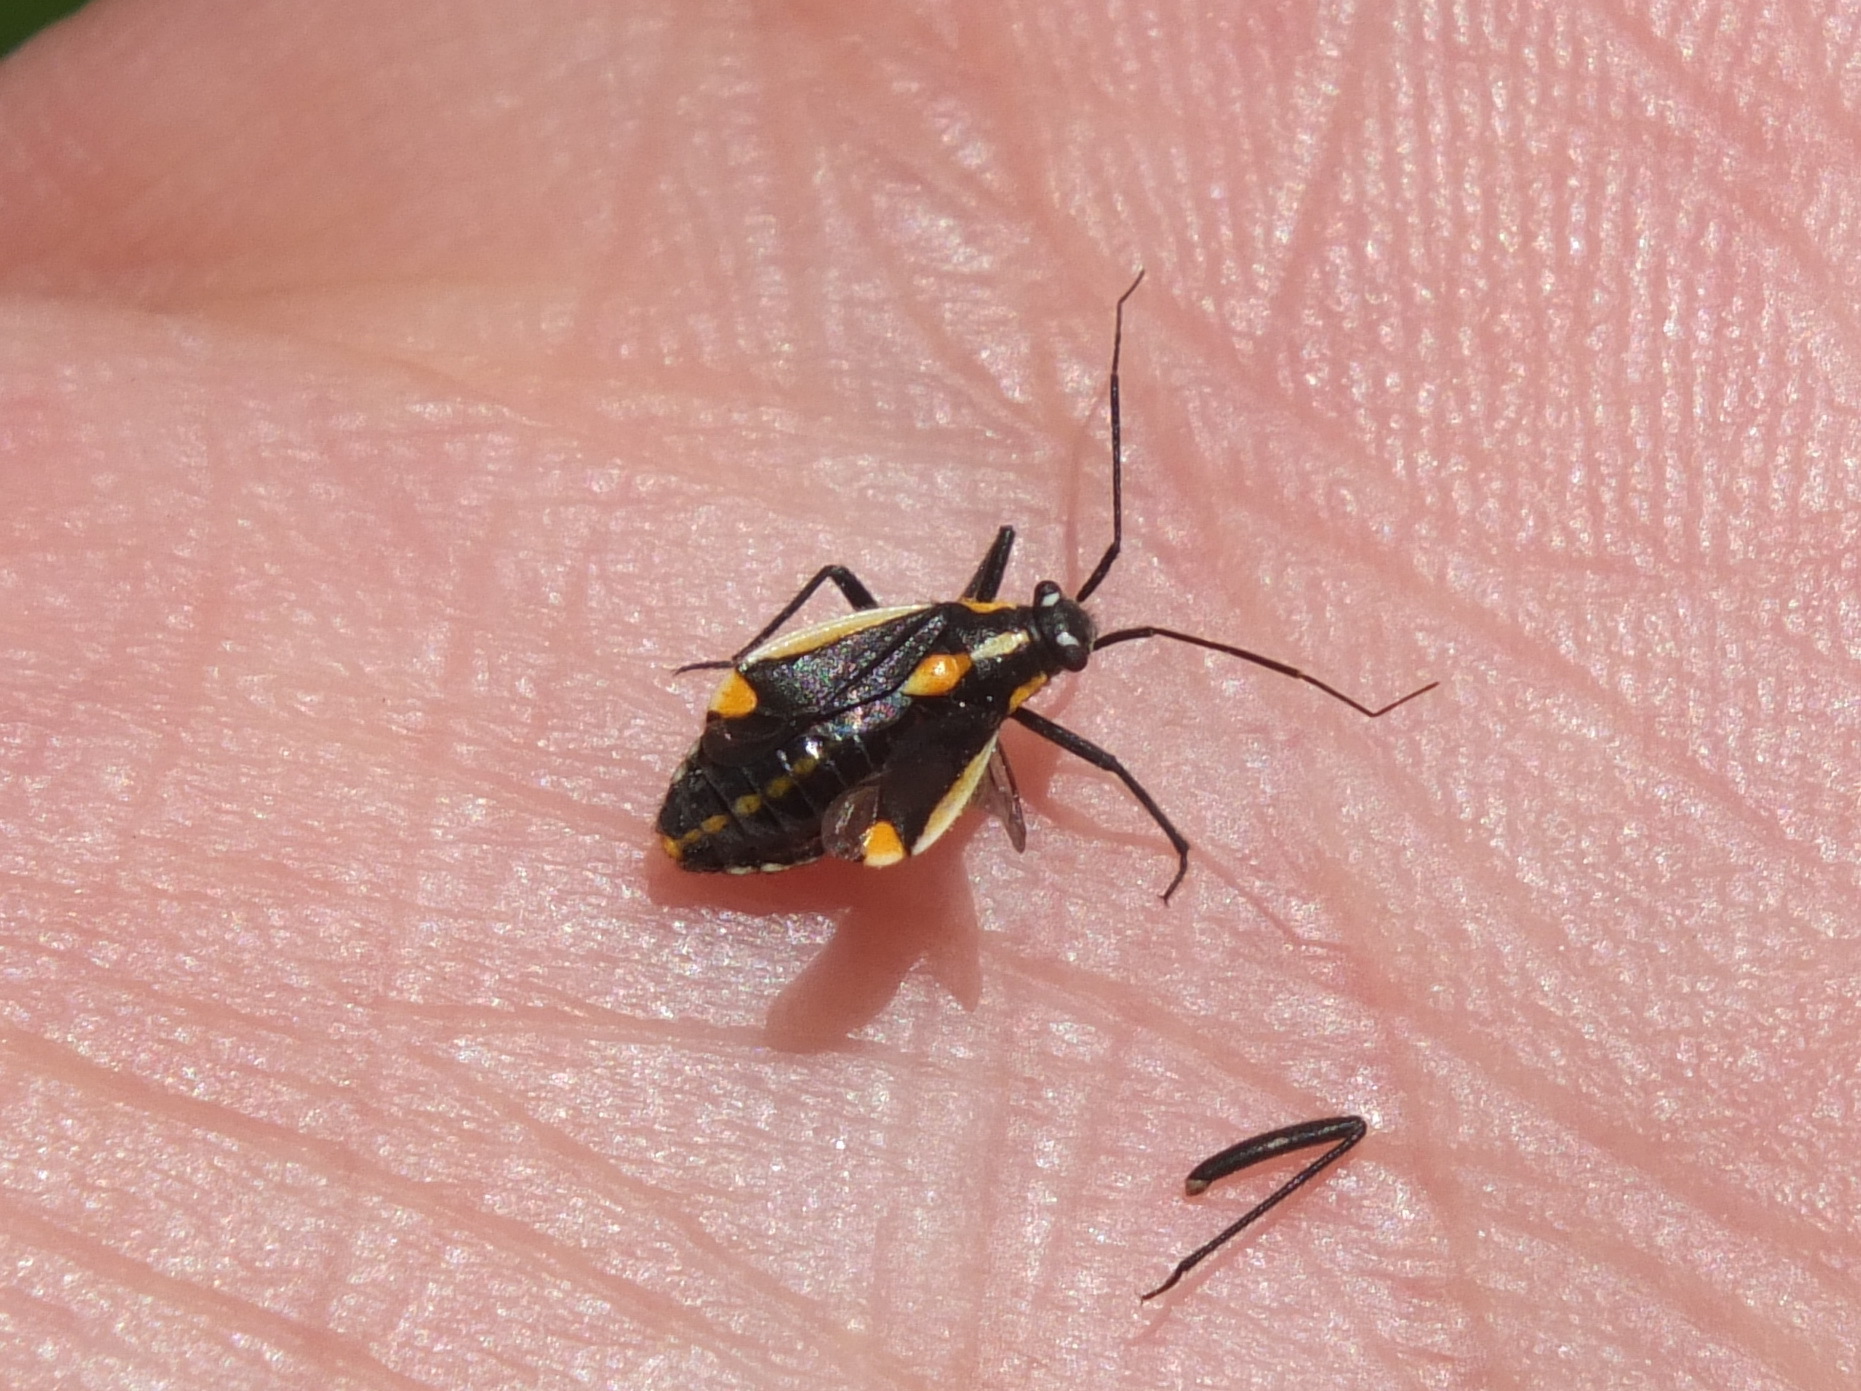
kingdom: Animalia
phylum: Arthropoda
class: Insecta
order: Hemiptera
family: Miridae
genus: Capsodes
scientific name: Capsodes vittiventris
